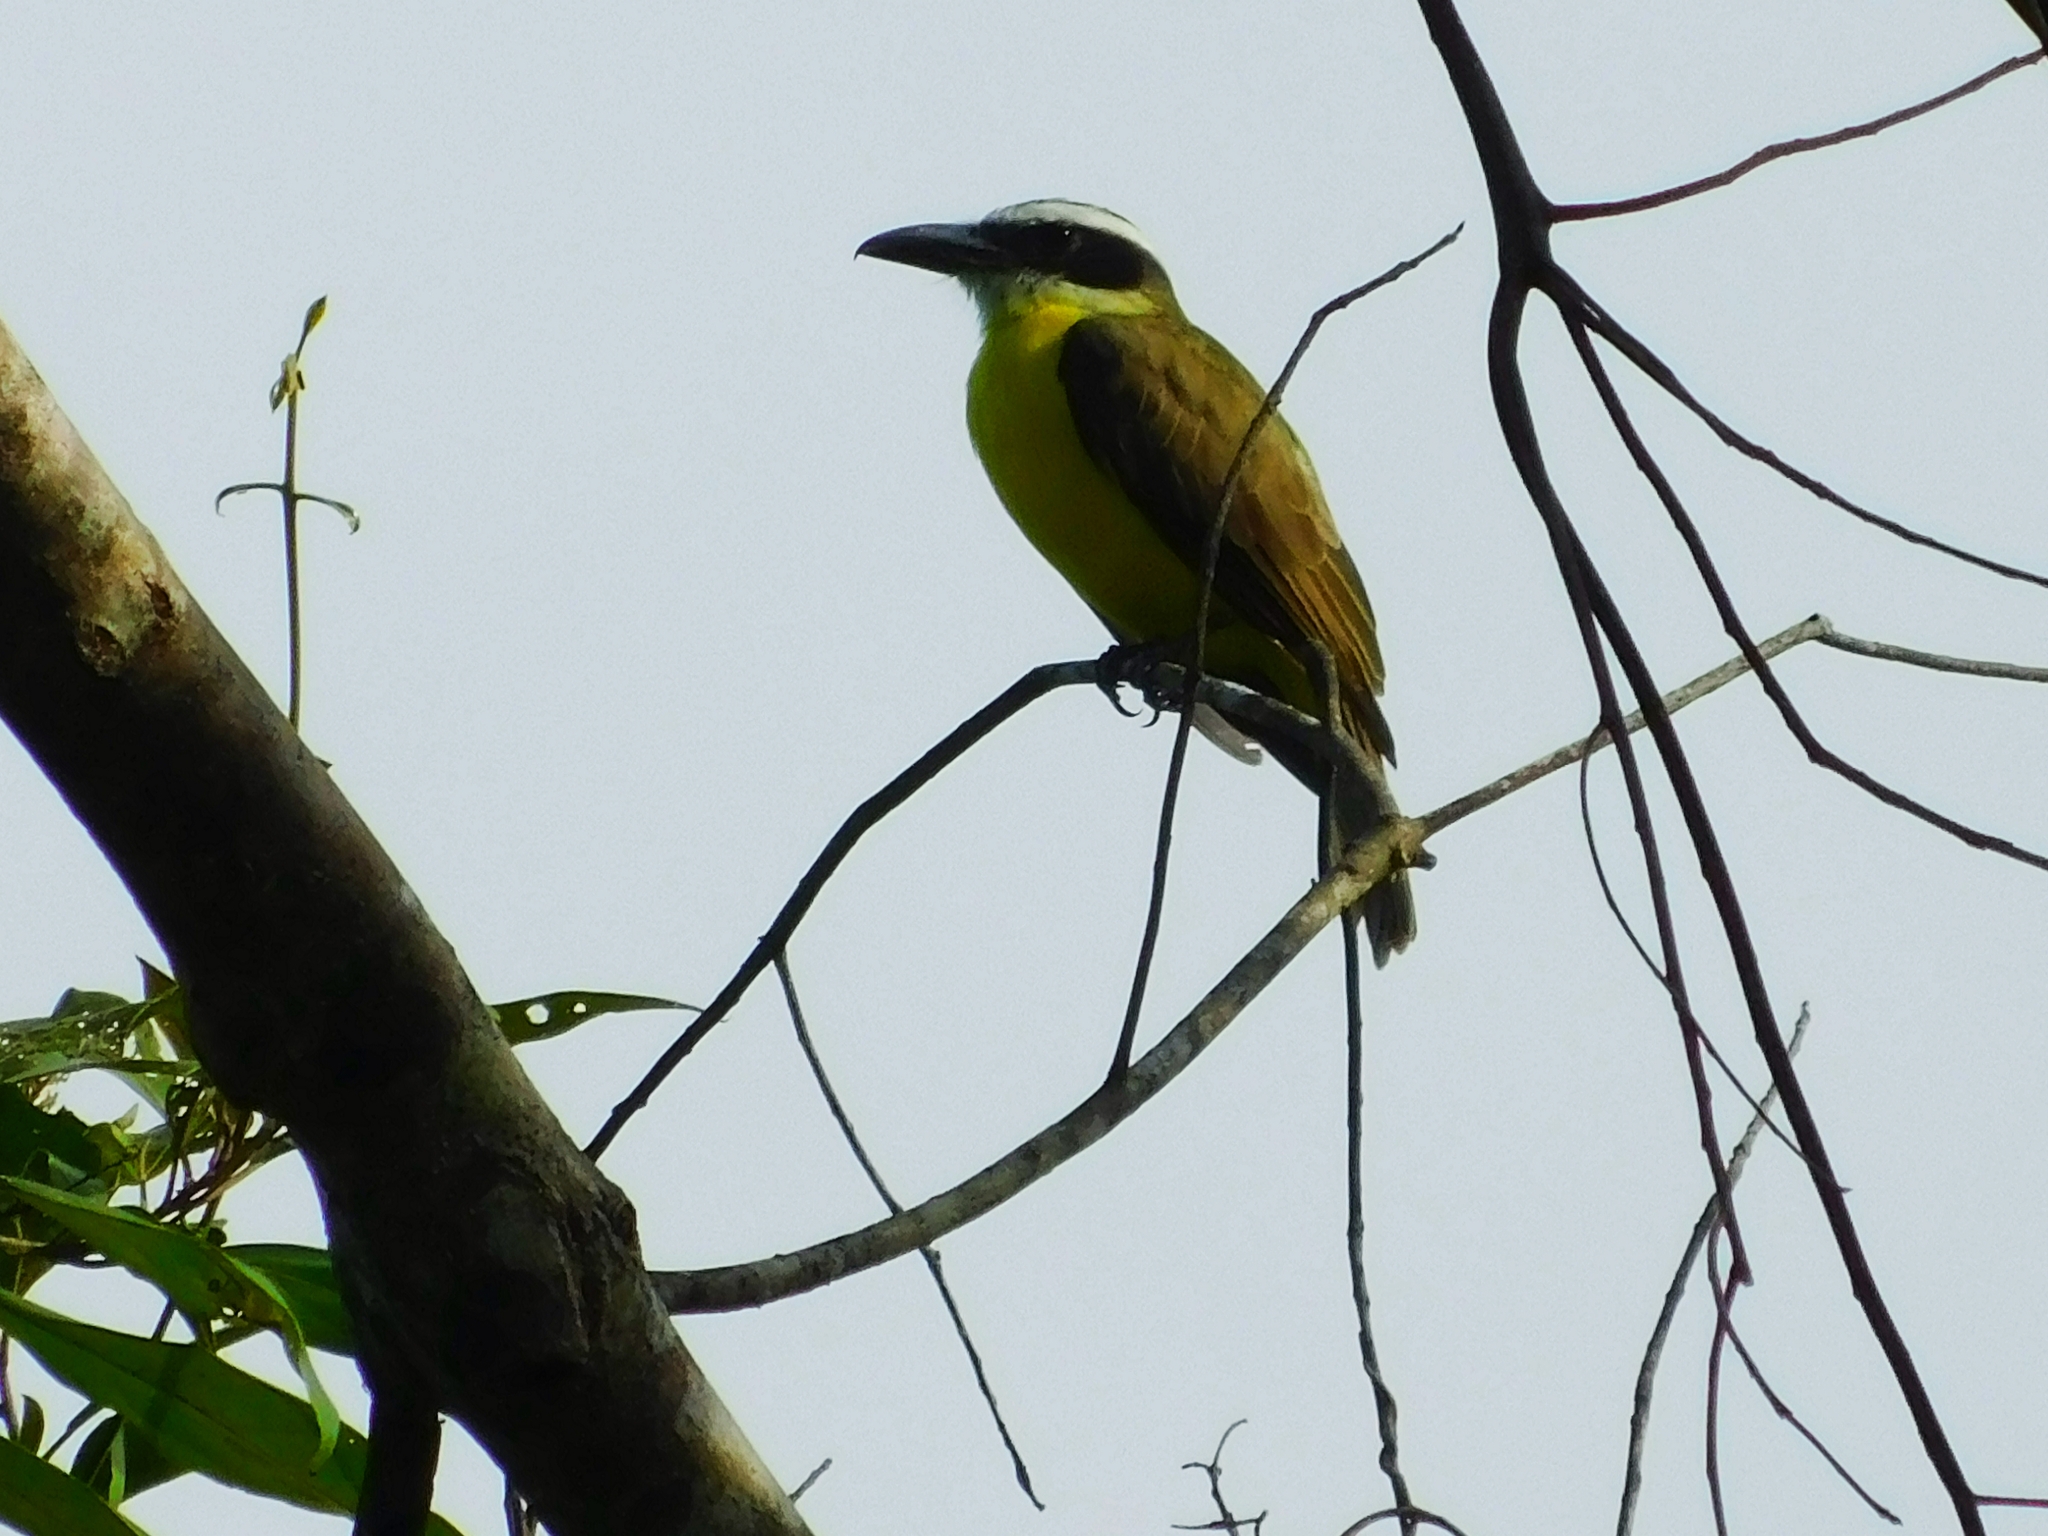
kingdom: Animalia
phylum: Chordata
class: Aves
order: Passeriformes
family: Tyrannidae
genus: Megarynchus
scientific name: Megarynchus pitangua
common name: Boat-billed flycatcher
